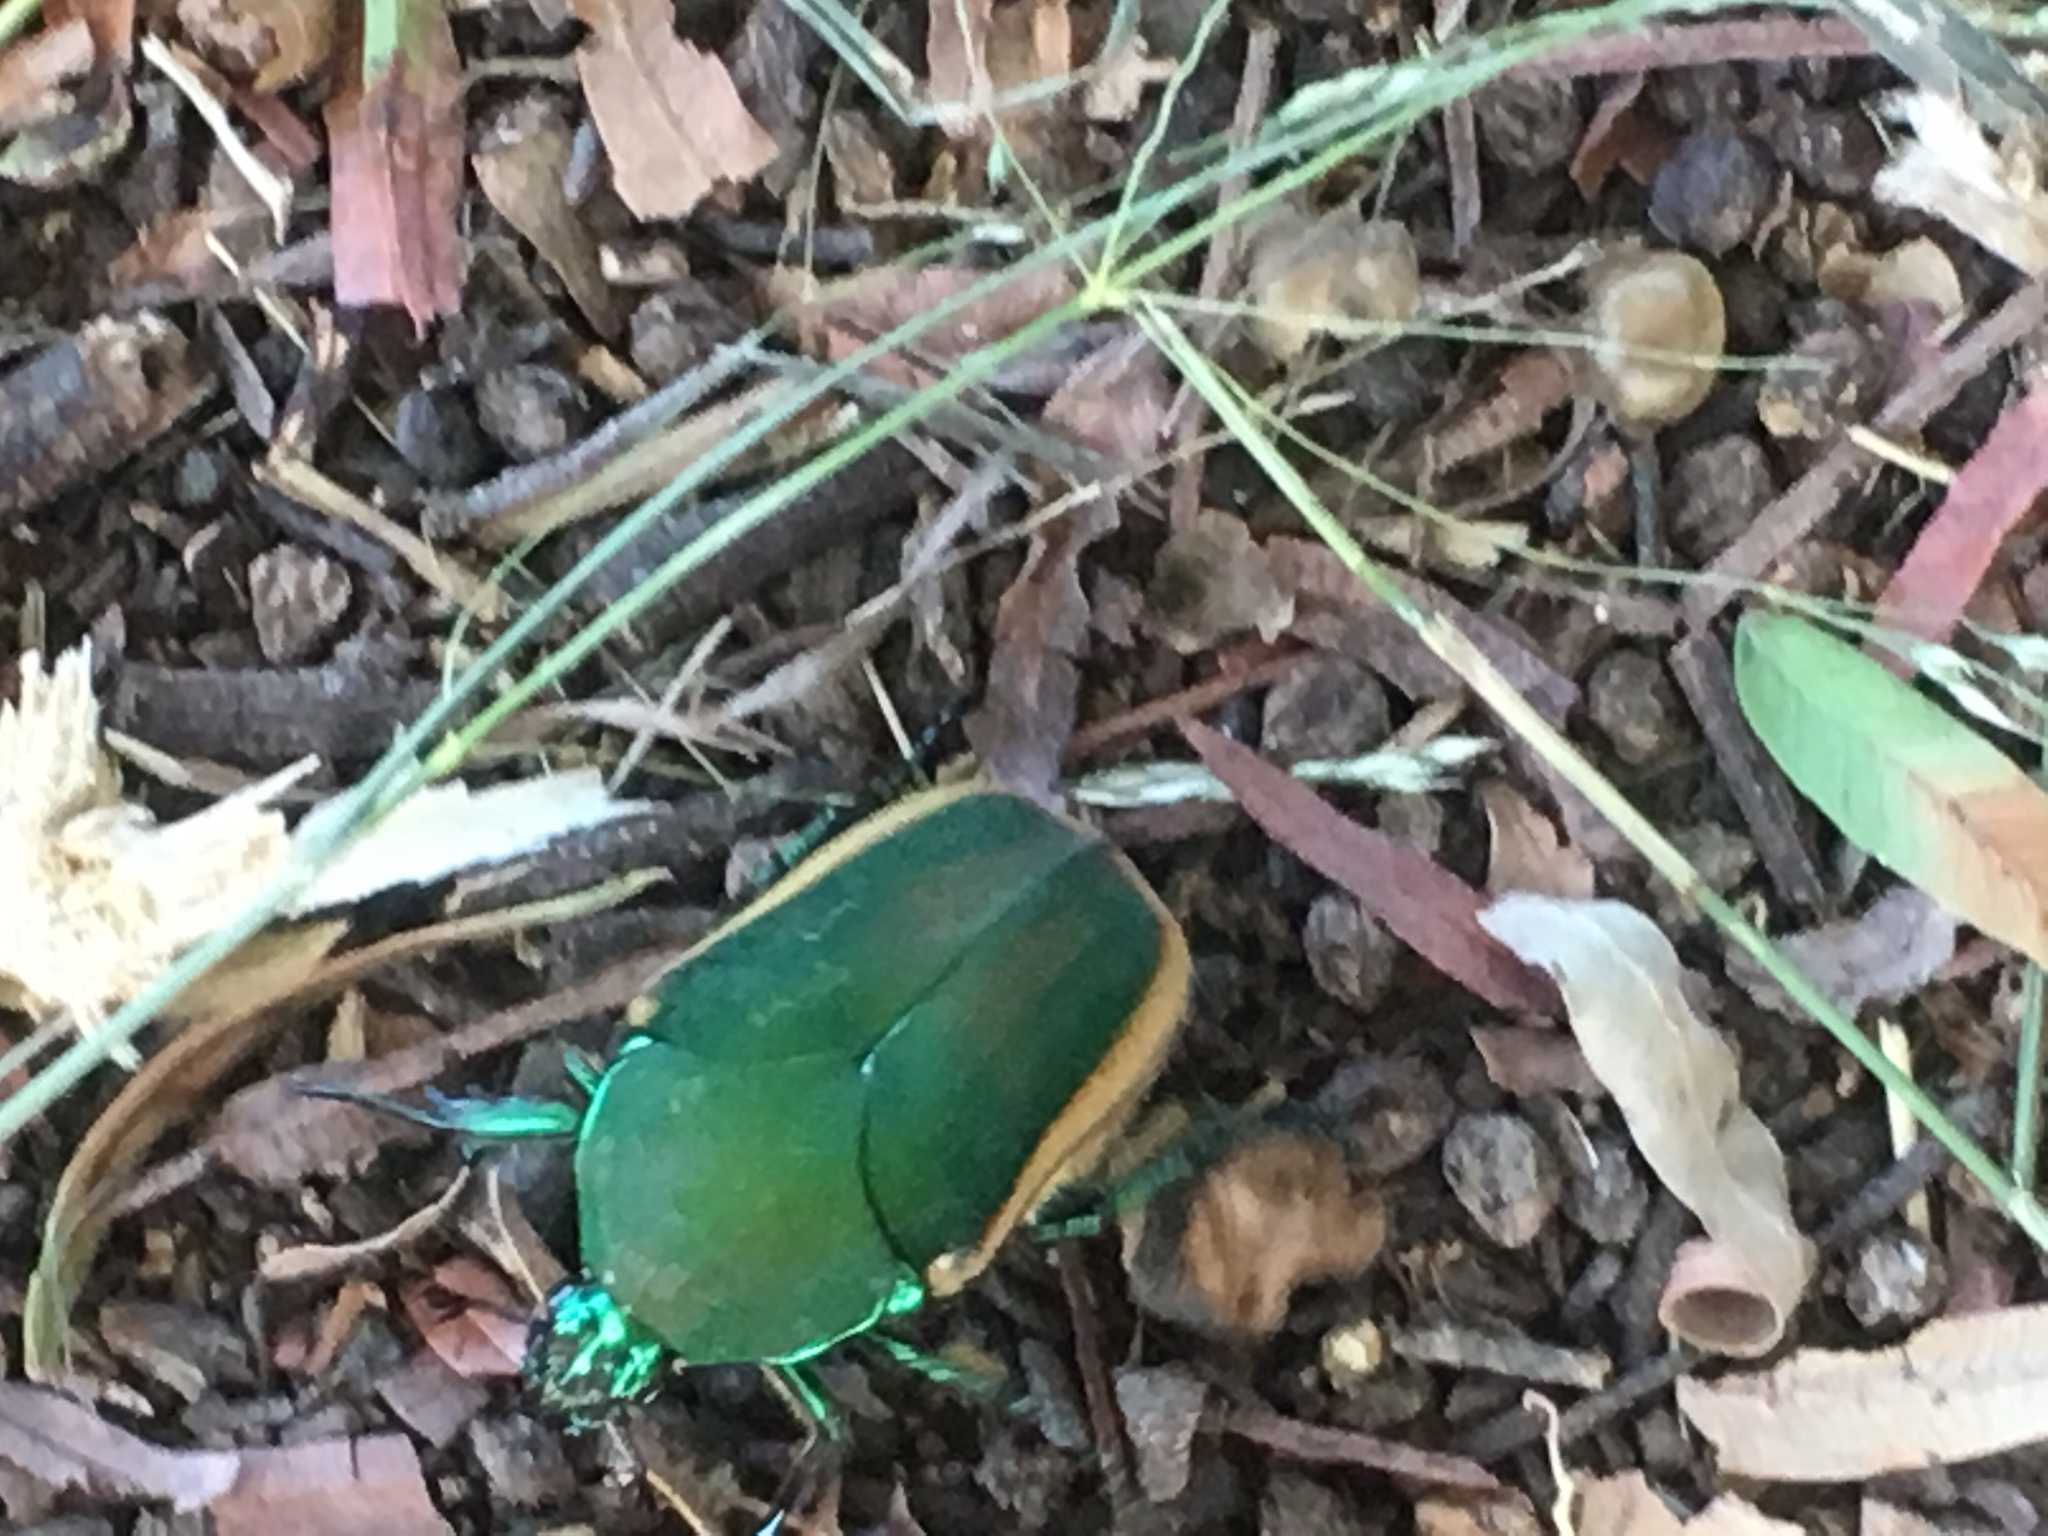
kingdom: Animalia
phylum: Arthropoda
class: Insecta
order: Coleoptera
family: Scarabaeidae
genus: Cotinis
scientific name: Cotinis mutabilis
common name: Figeater beetle
